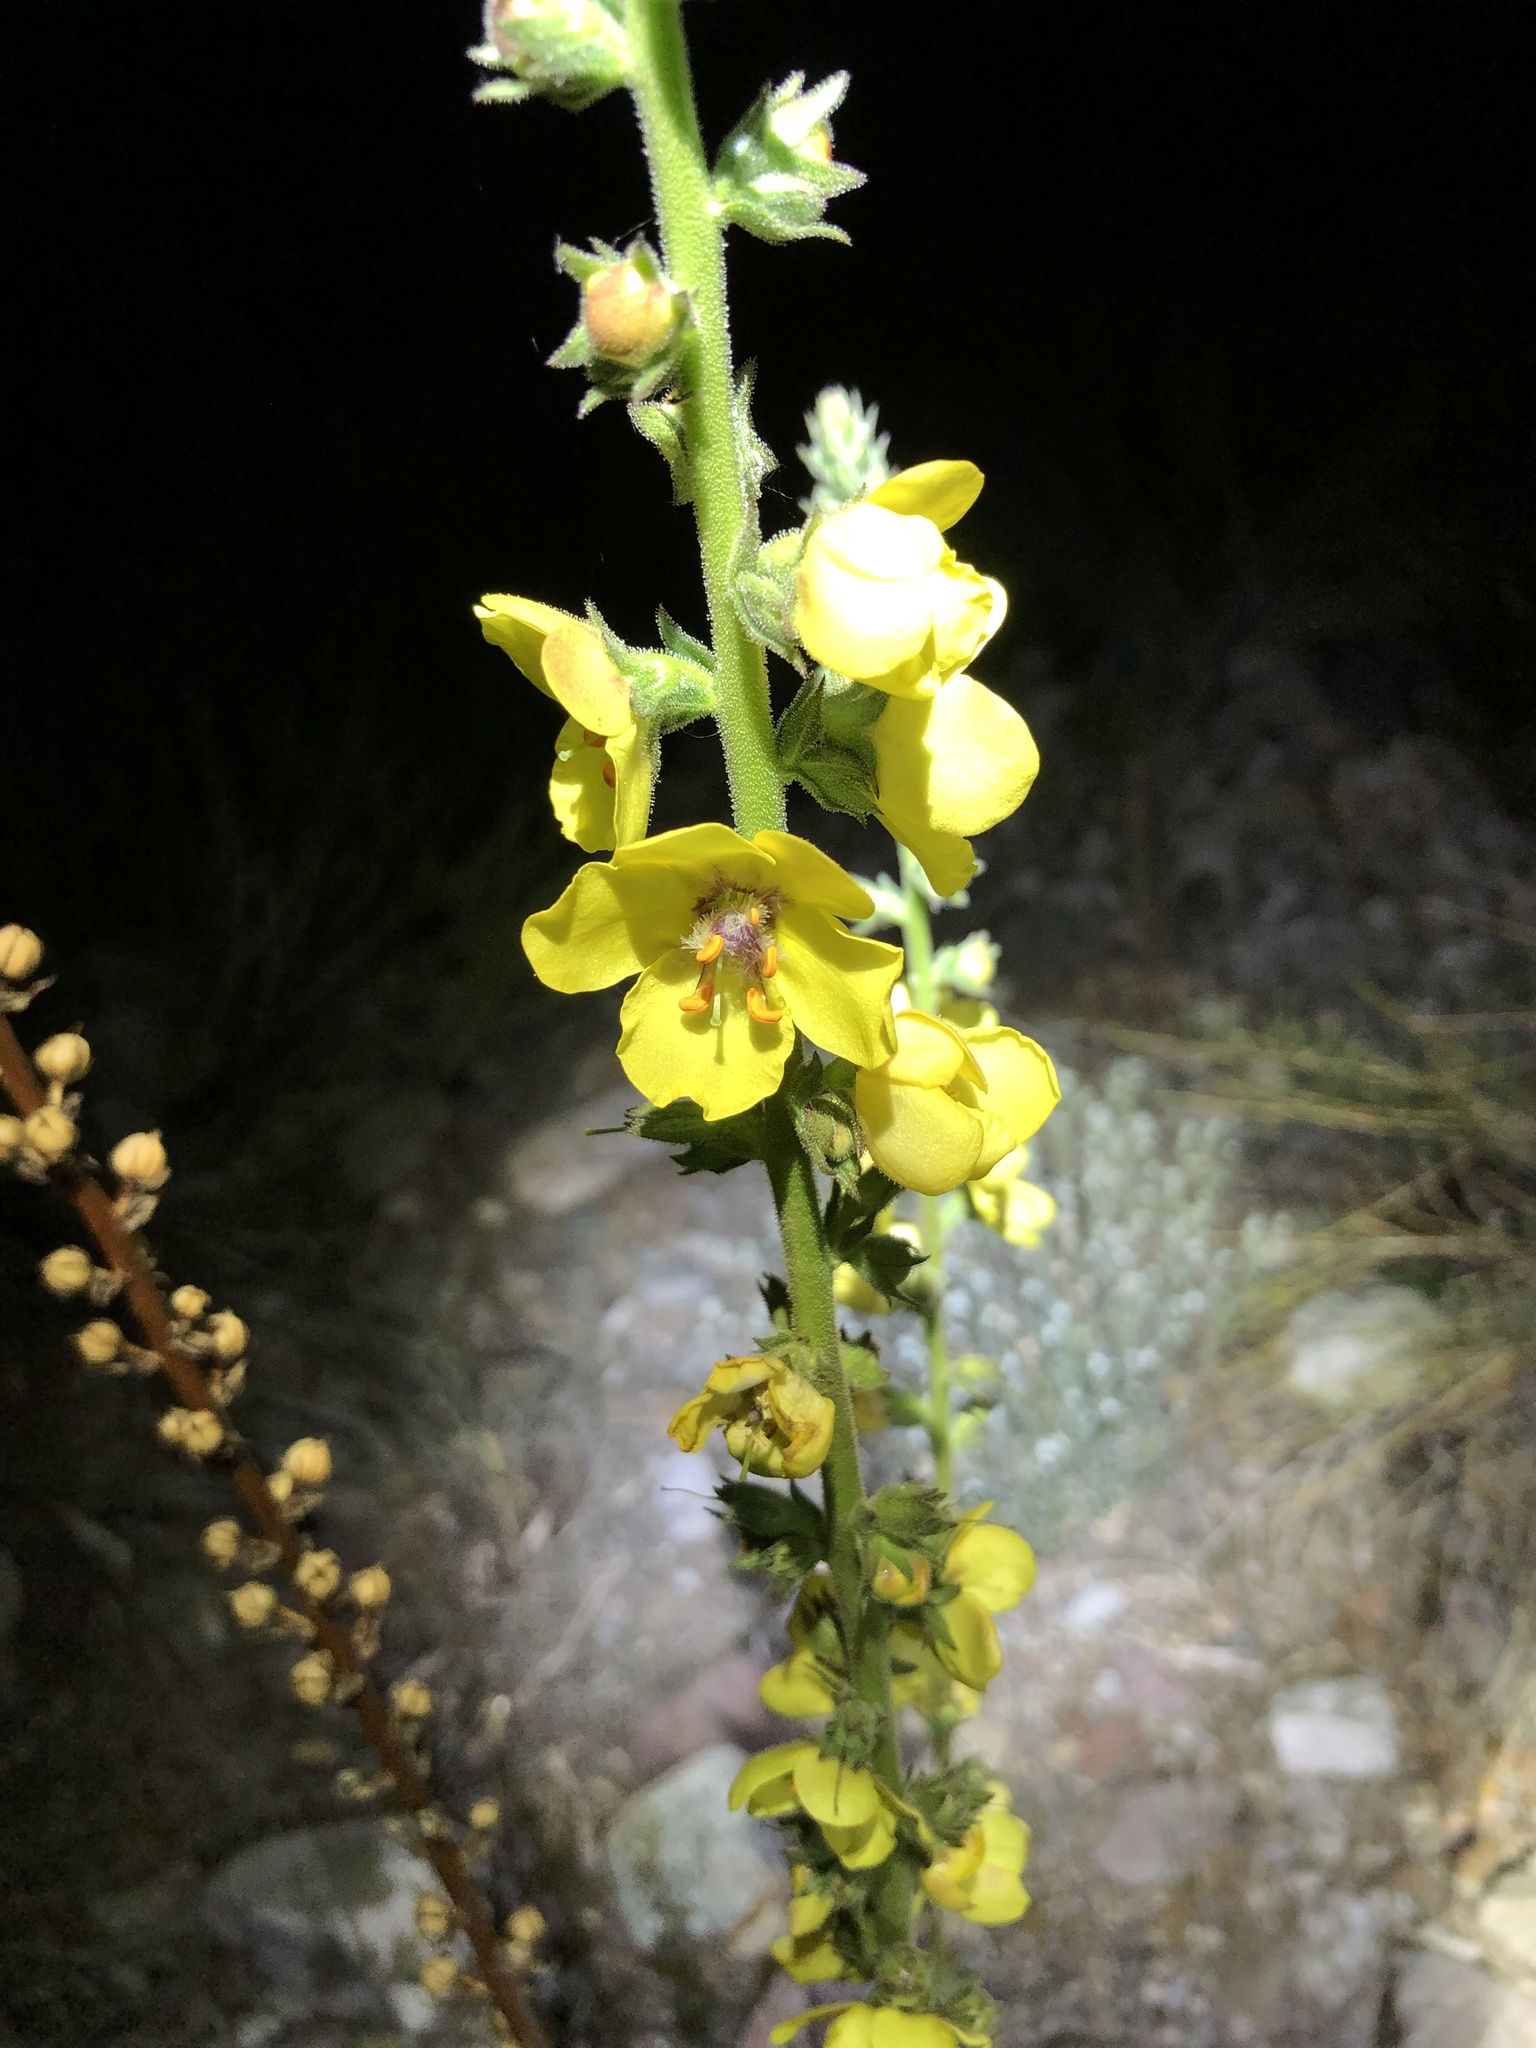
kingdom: Plantae
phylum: Tracheophyta
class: Magnoliopsida
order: Lamiales
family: Scrophulariaceae
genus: Verbascum
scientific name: Verbascum virgatum
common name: Twiggy mullein
